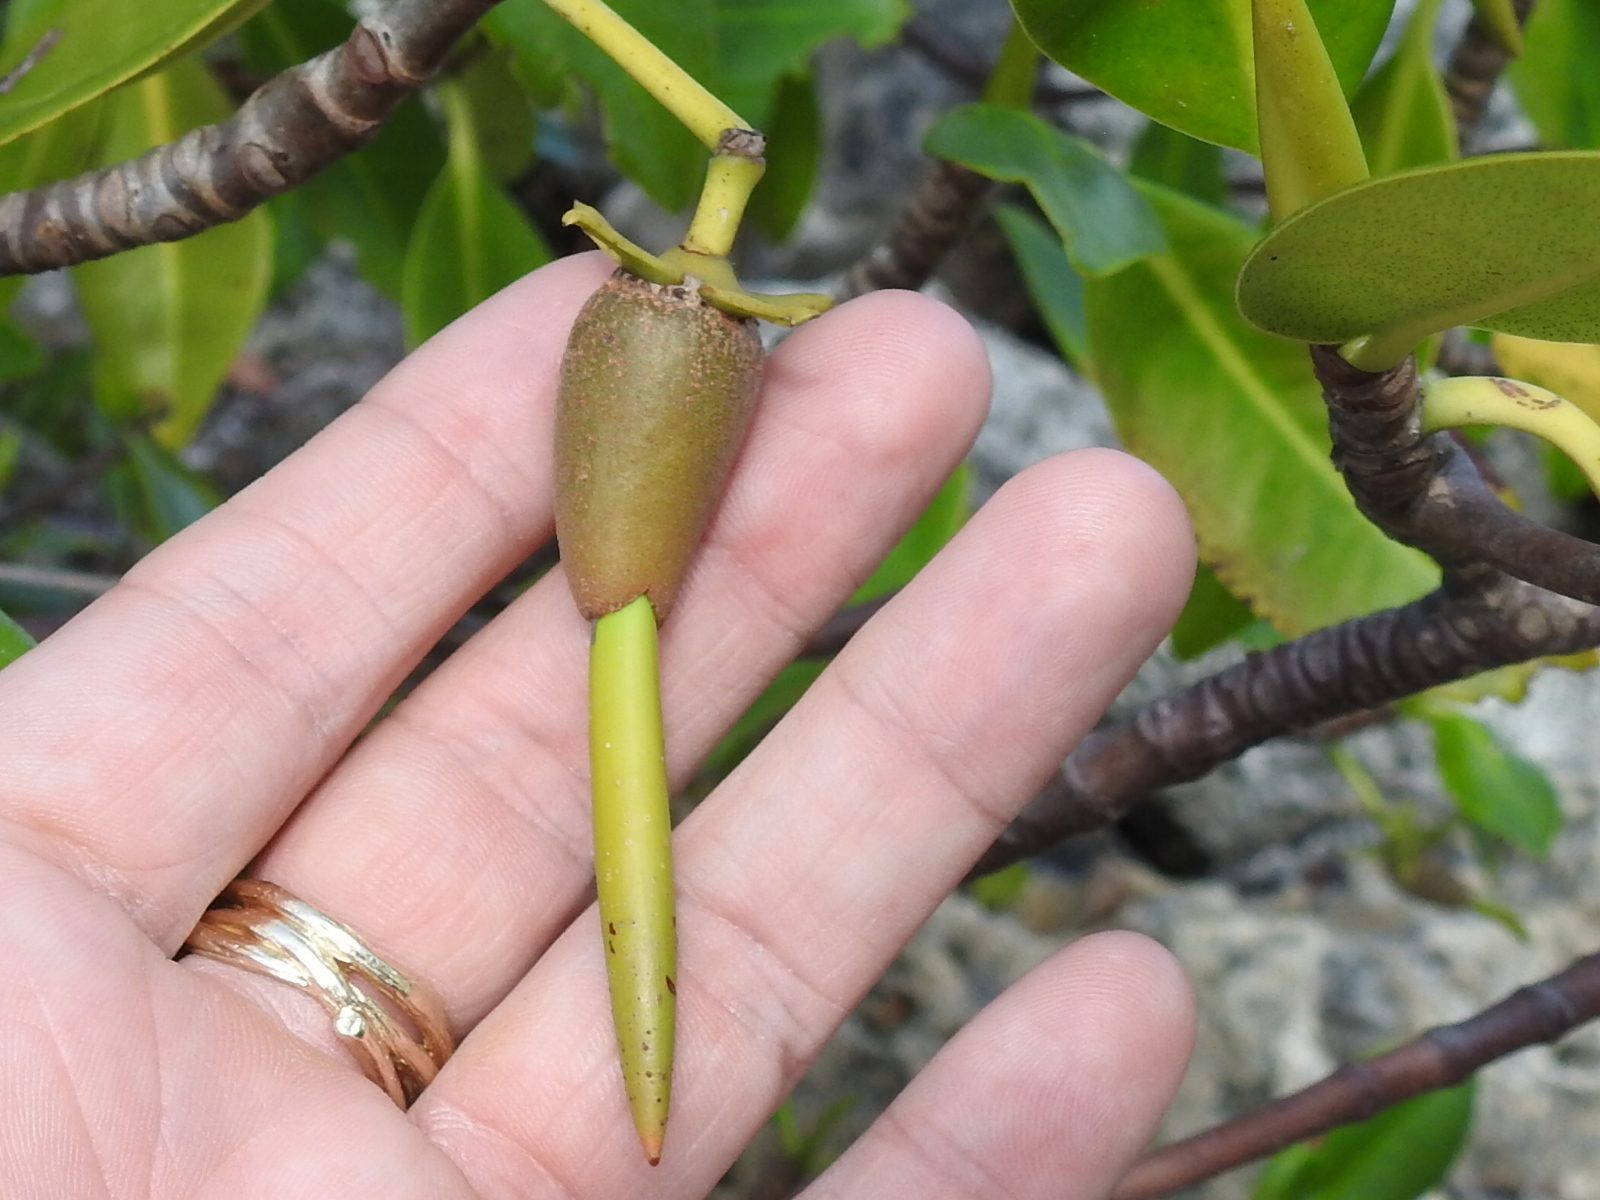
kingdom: Plantae
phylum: Tracheophyta
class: Magnoliopsida
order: Malpighiales
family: Rhizophoraceae
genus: Rhizophora
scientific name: Rhizophora mangle
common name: Red mangrove
